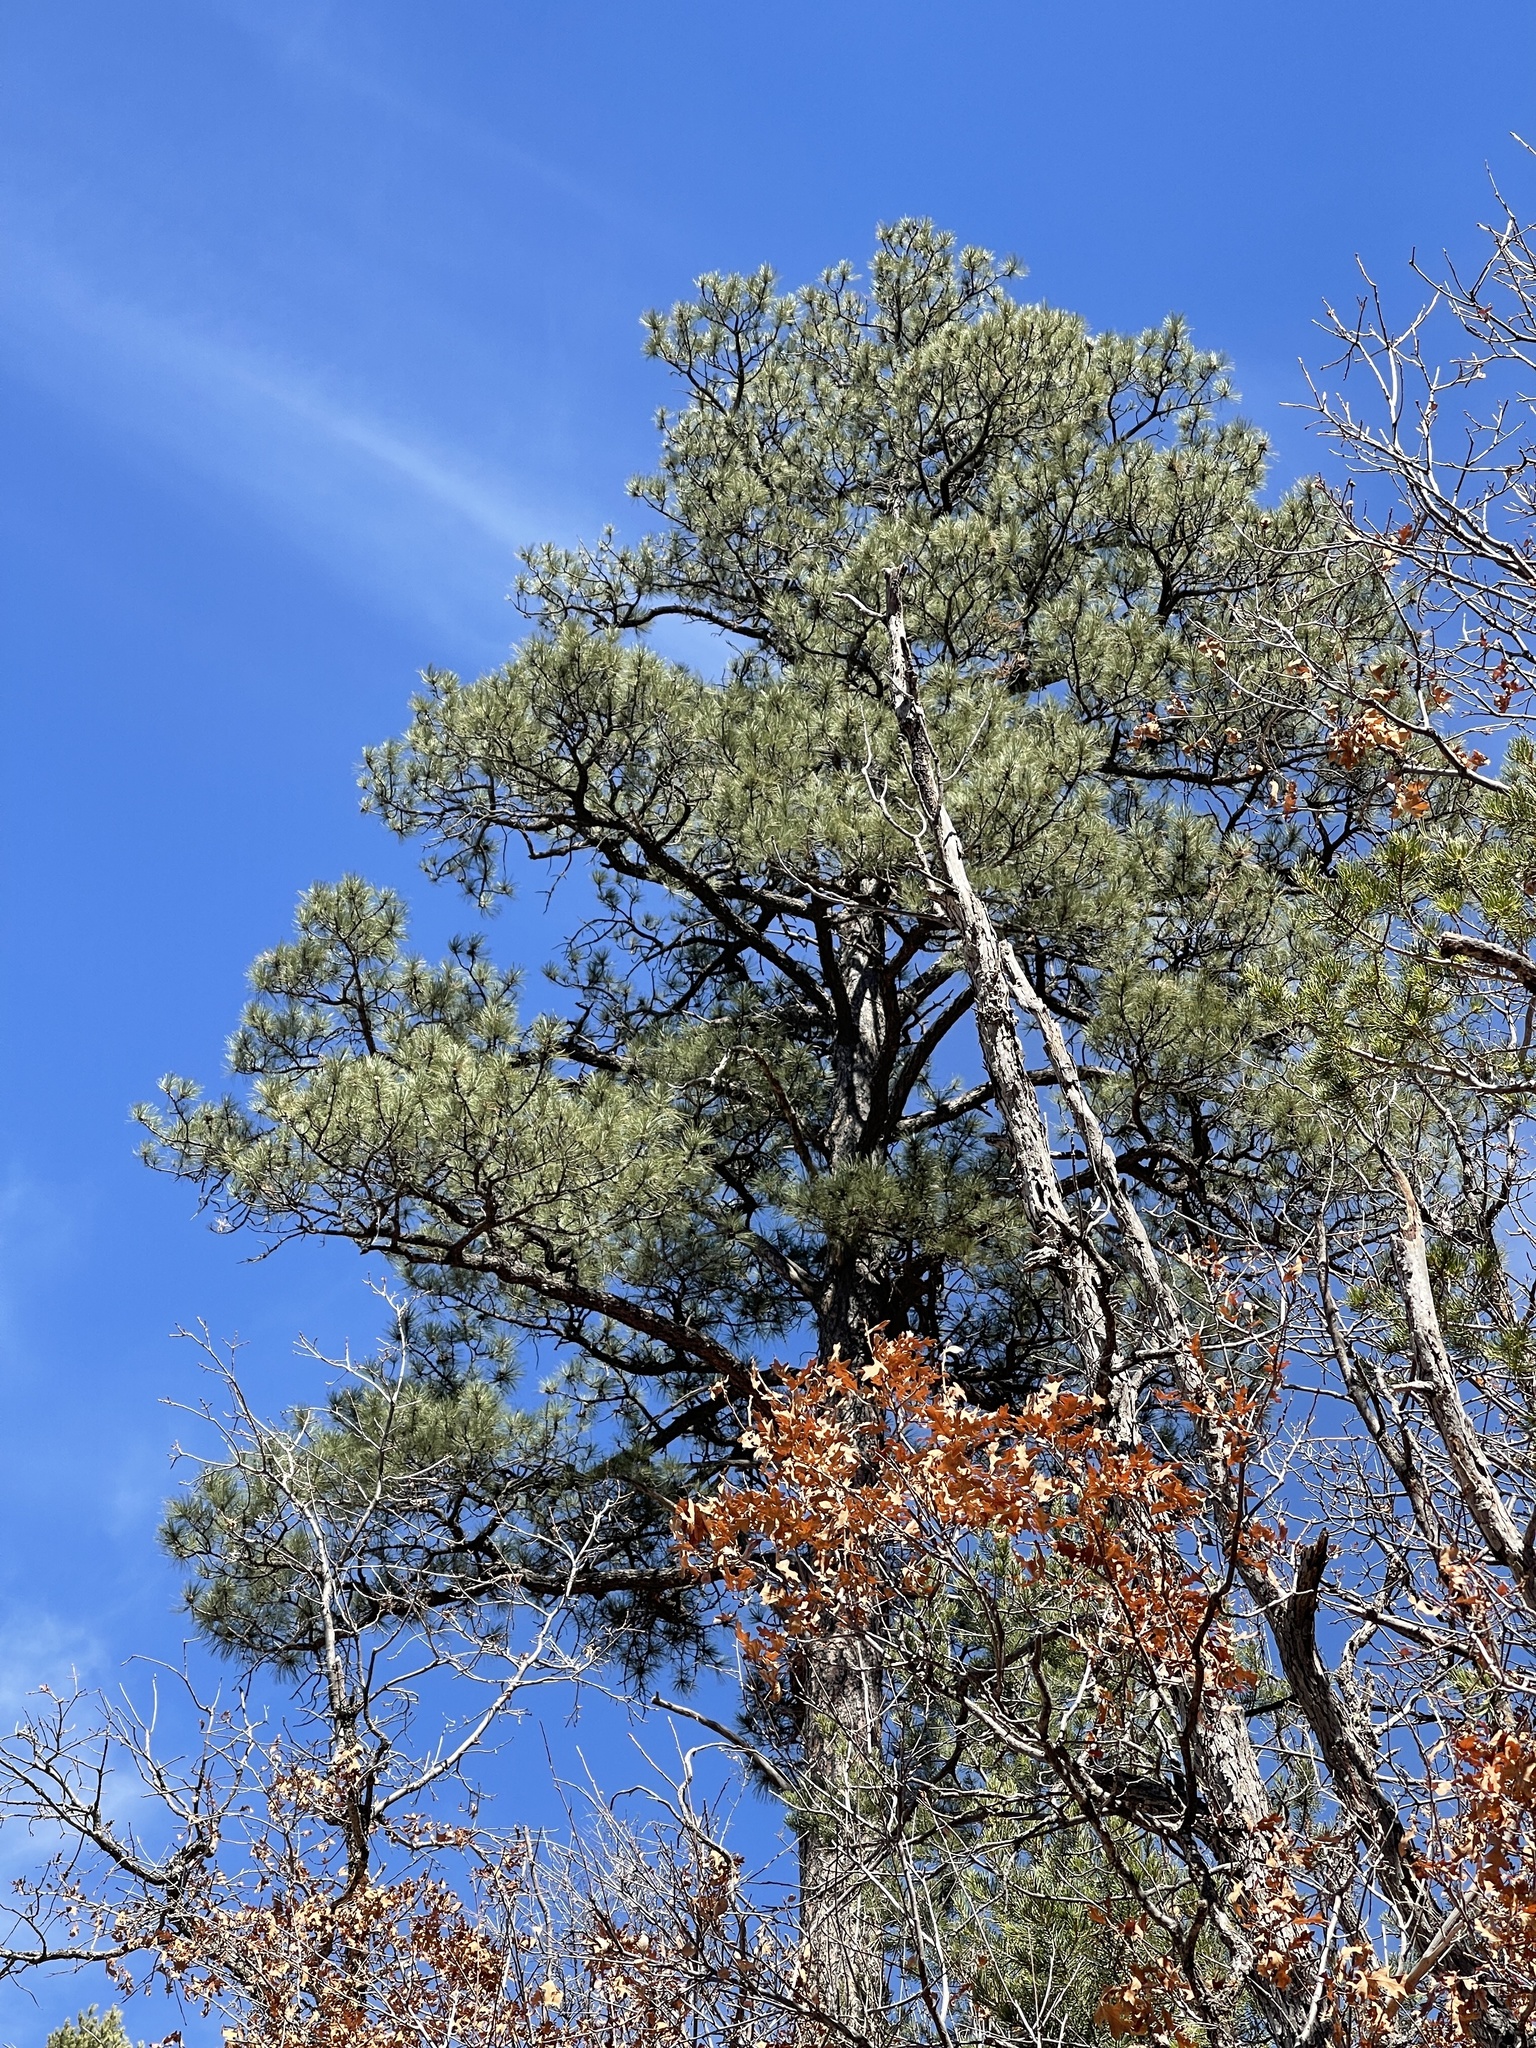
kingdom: Plantae
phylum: Tracheophyta
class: Pinopsida
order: Pinales
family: Pinaceae
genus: Pinus
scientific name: Pinus ponderosa
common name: Western yellow-pine
